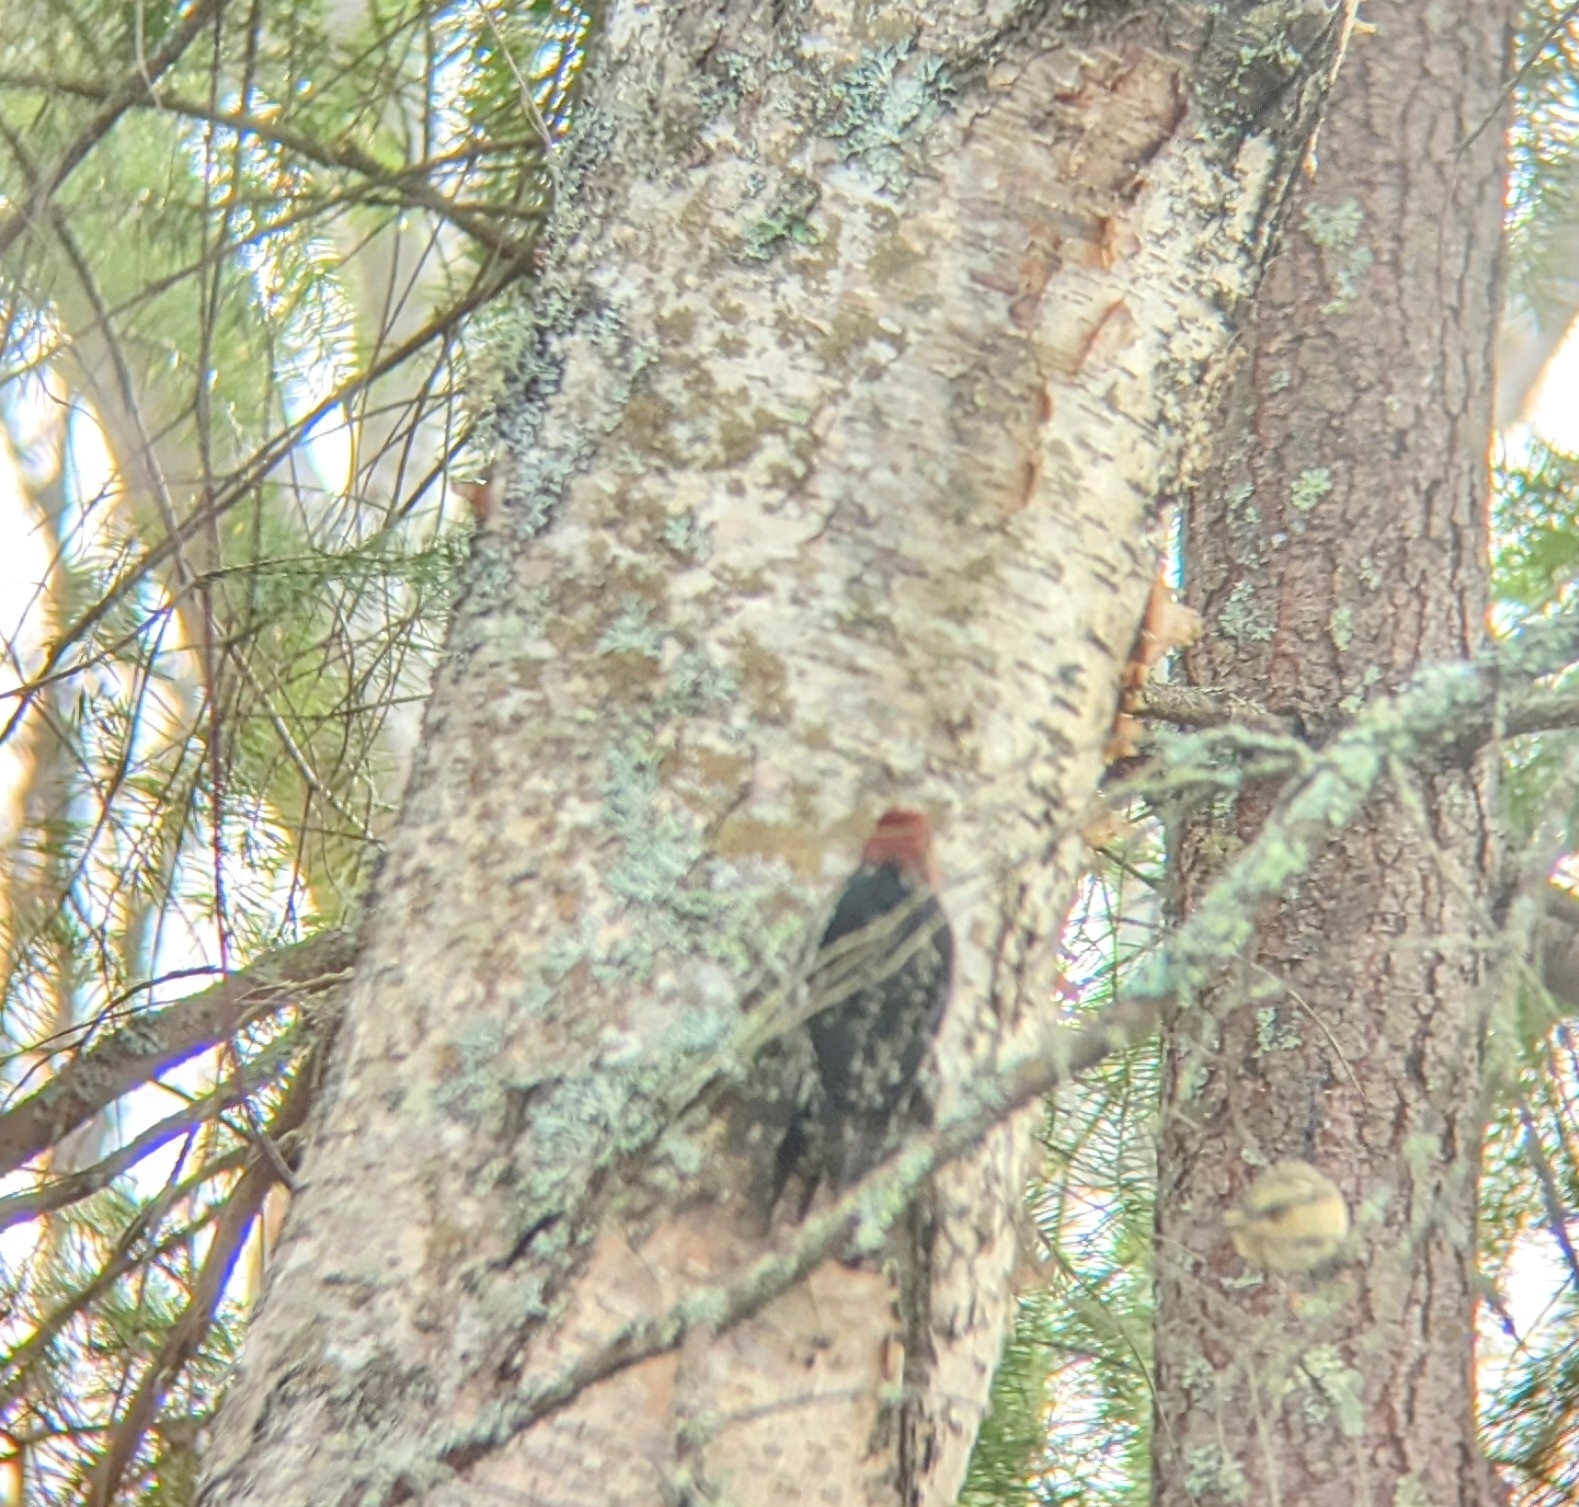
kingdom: Animalia
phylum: Chordata
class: Aves
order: Piciformes
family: Picidae
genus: Sphyrapicus
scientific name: Sphyrapicus ruber
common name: Red-breasted sapsucker
